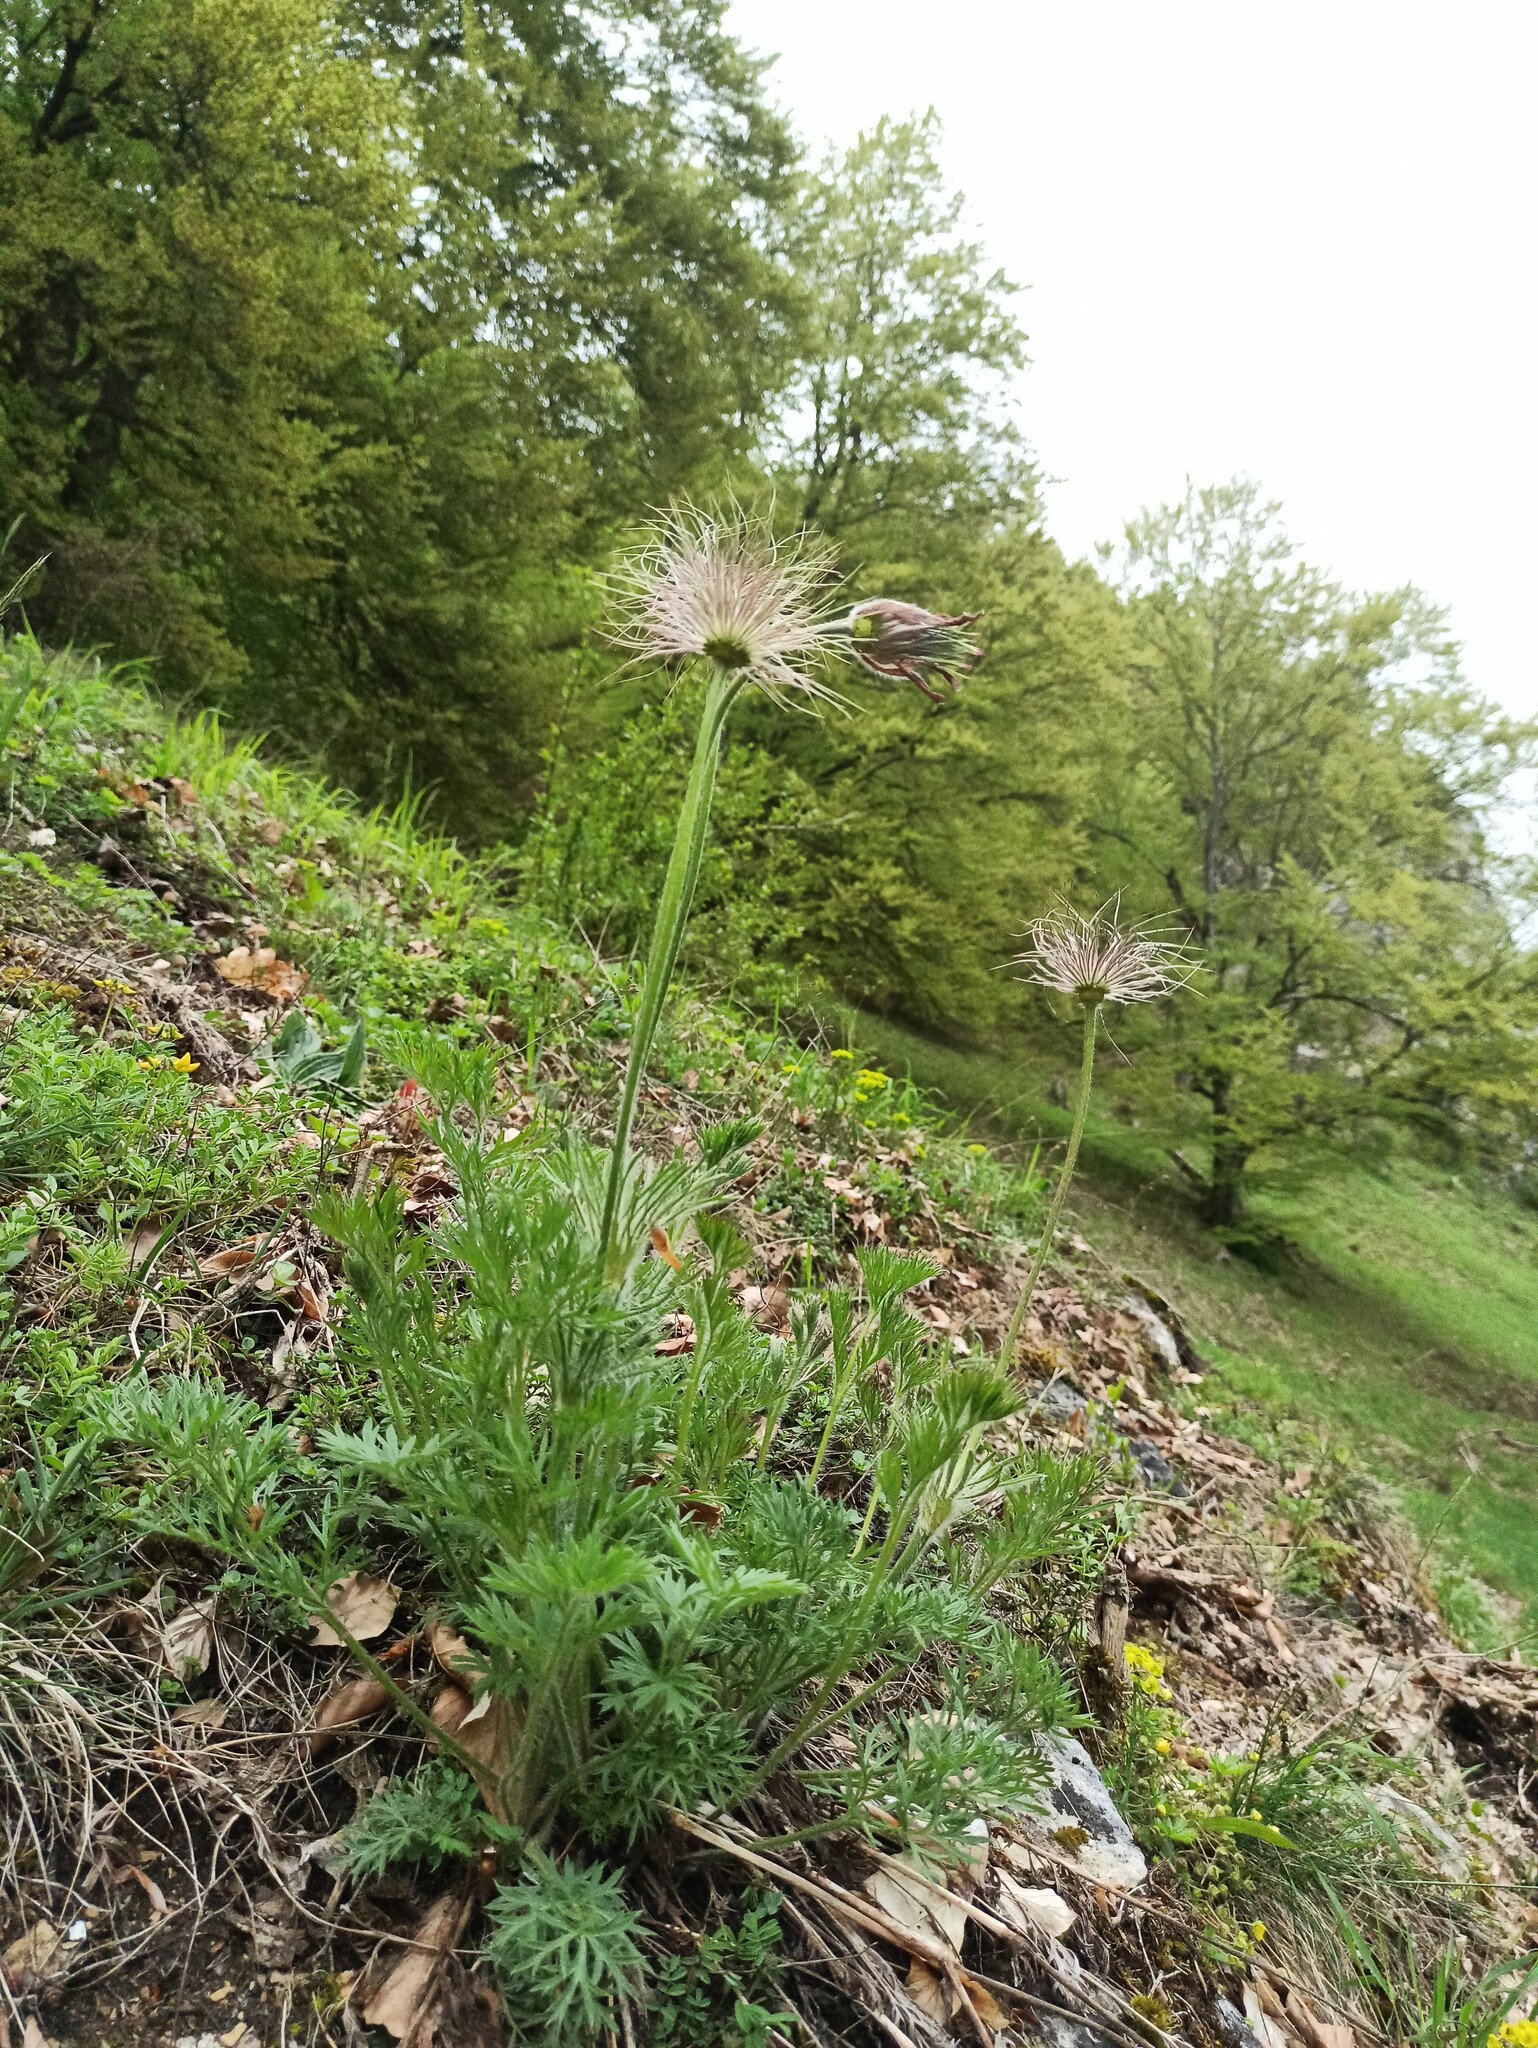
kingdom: Plantae
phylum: Tracheophyta
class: Magnoliopsida
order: Ranunculales
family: Ranunculaceae
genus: Pulsatilla
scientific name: Pulsatilla vulgaris
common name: Pasqueflower
